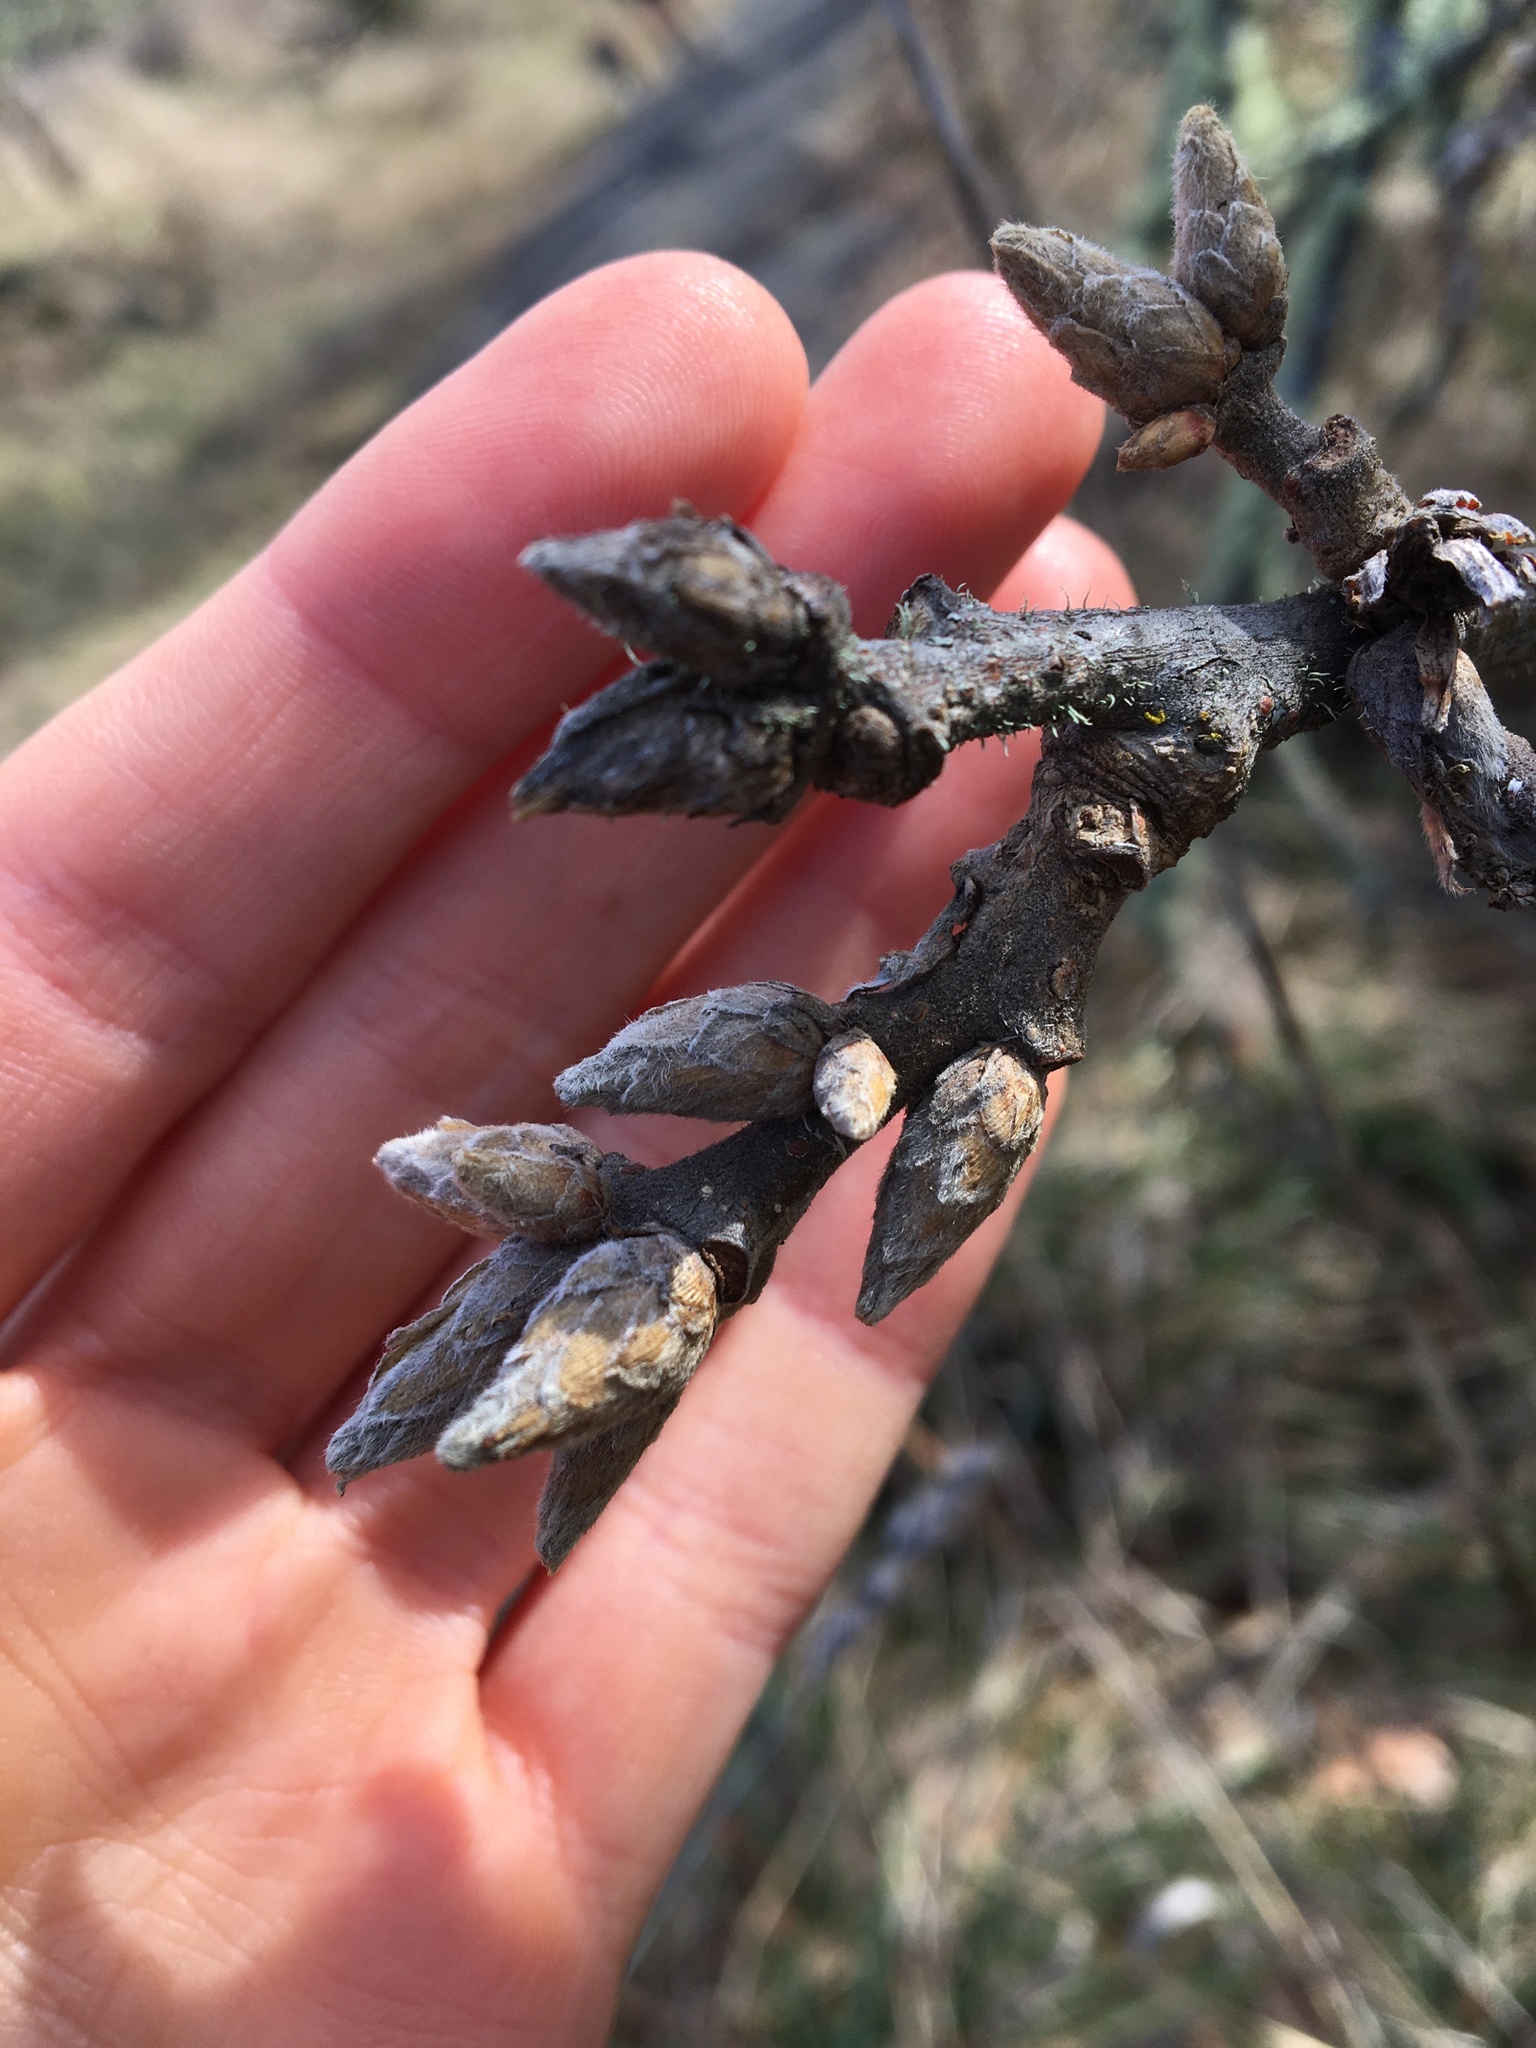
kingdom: Plantae
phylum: Tracheophyta
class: Magnoliopsida
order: Fagales
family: Fagaceae
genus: Quercus
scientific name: Quercus garryana
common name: Garry oak
